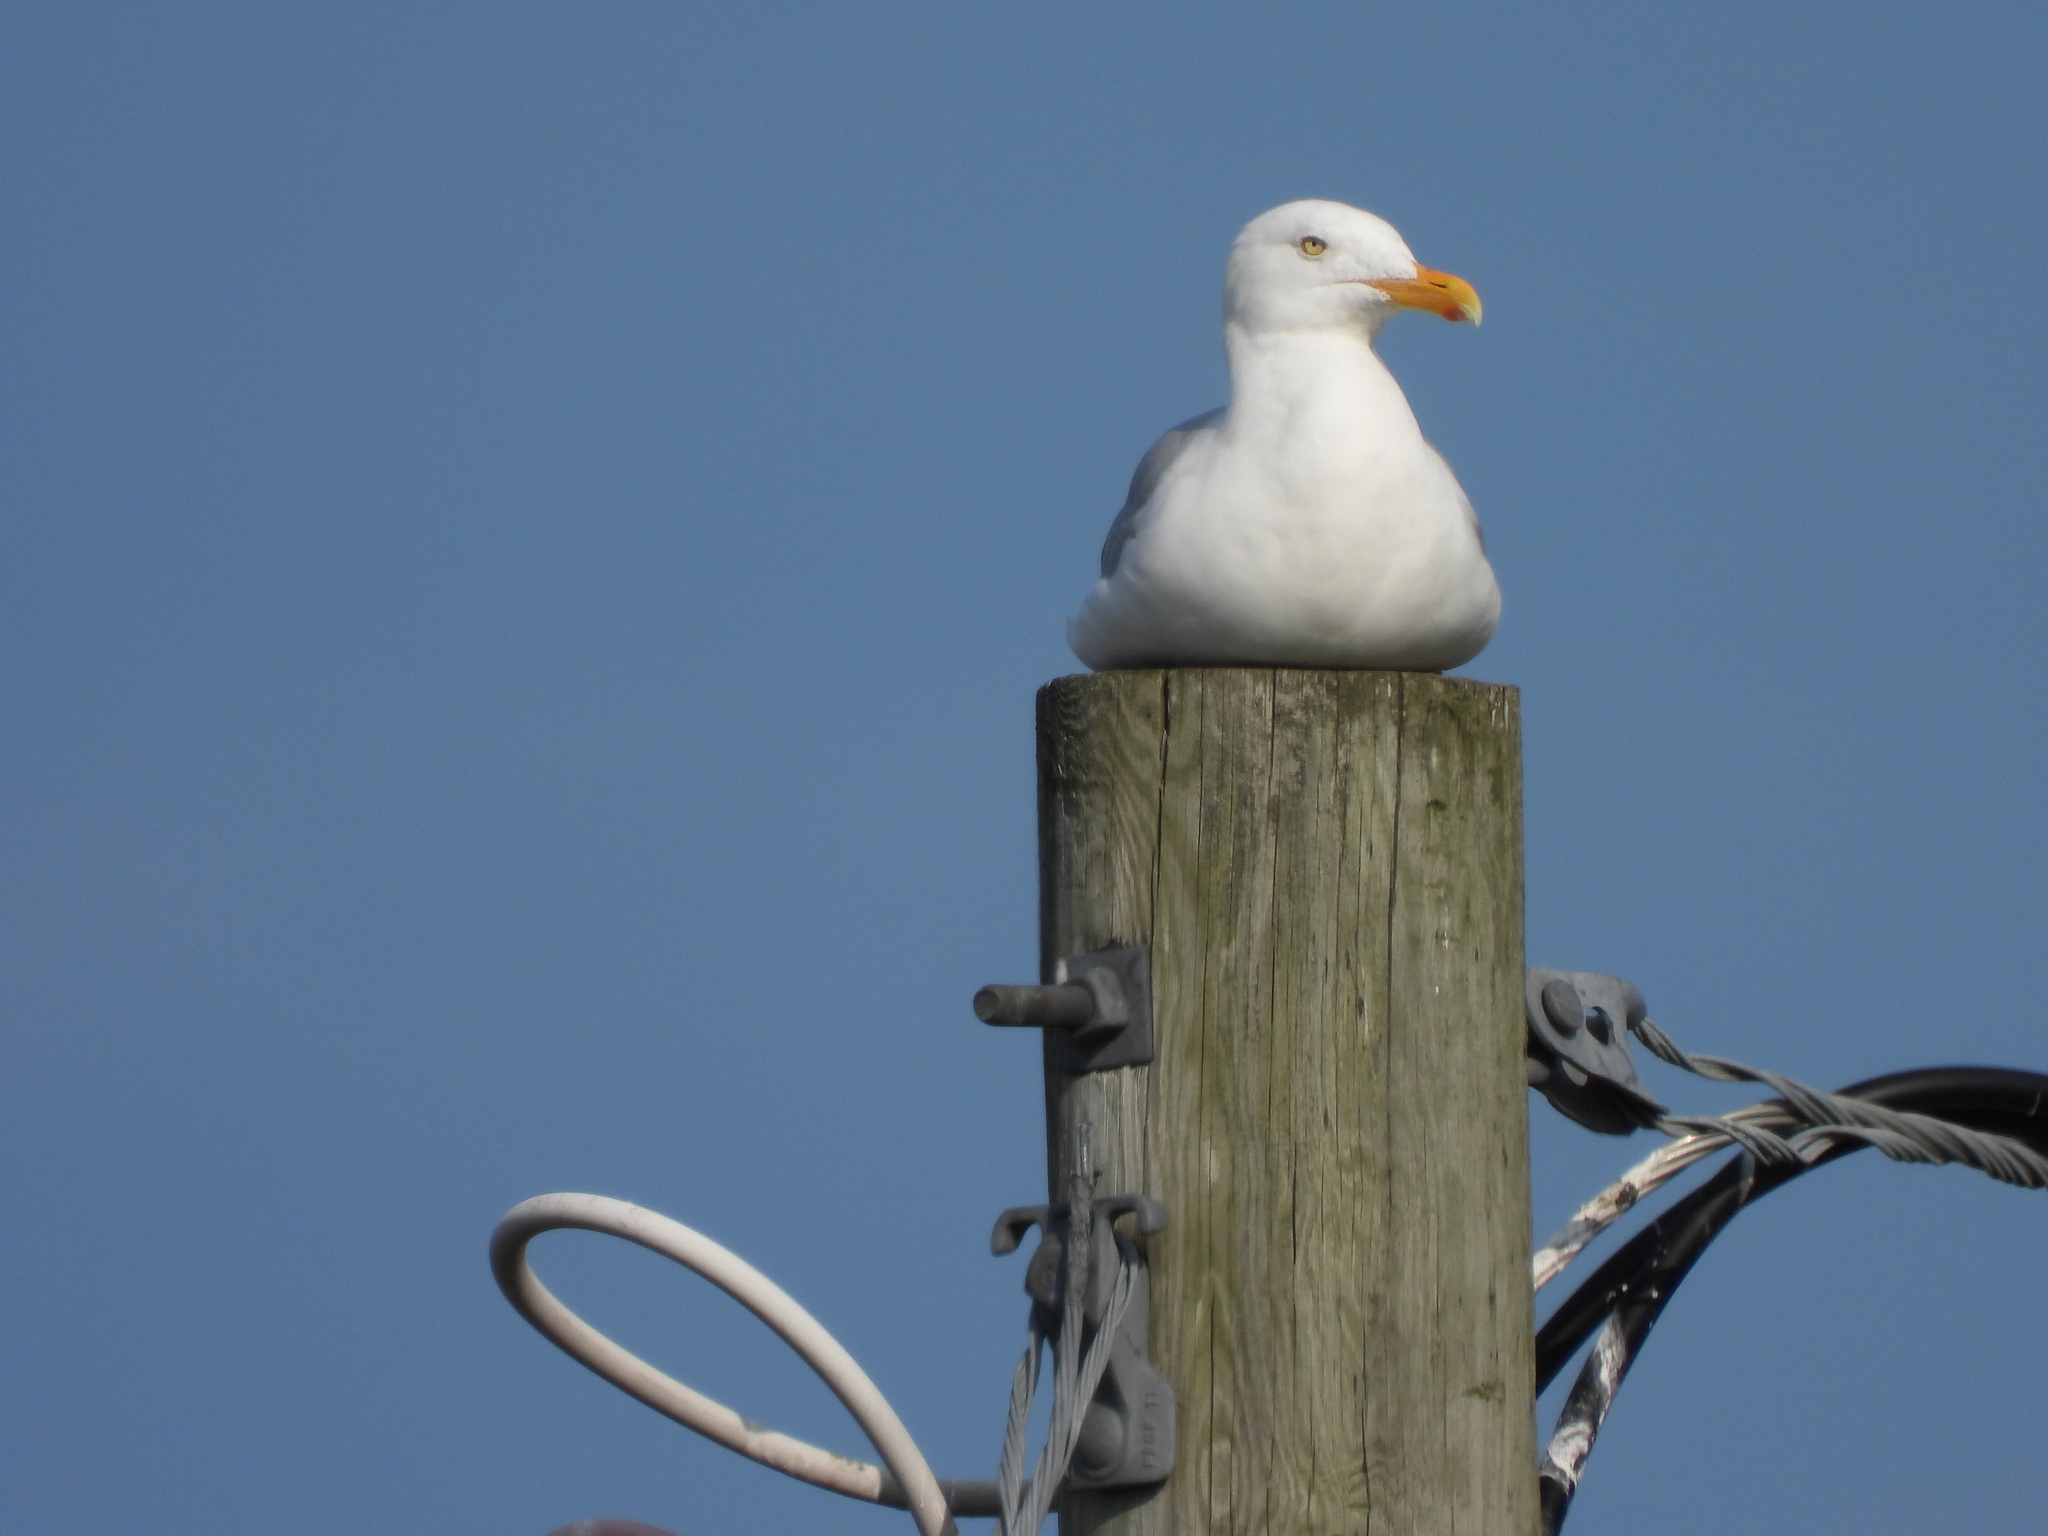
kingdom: Animalia
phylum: Chordata
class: Aves
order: Charadriiformes
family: Laridae
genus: Larus
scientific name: Larus argentatus
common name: Herring gull
